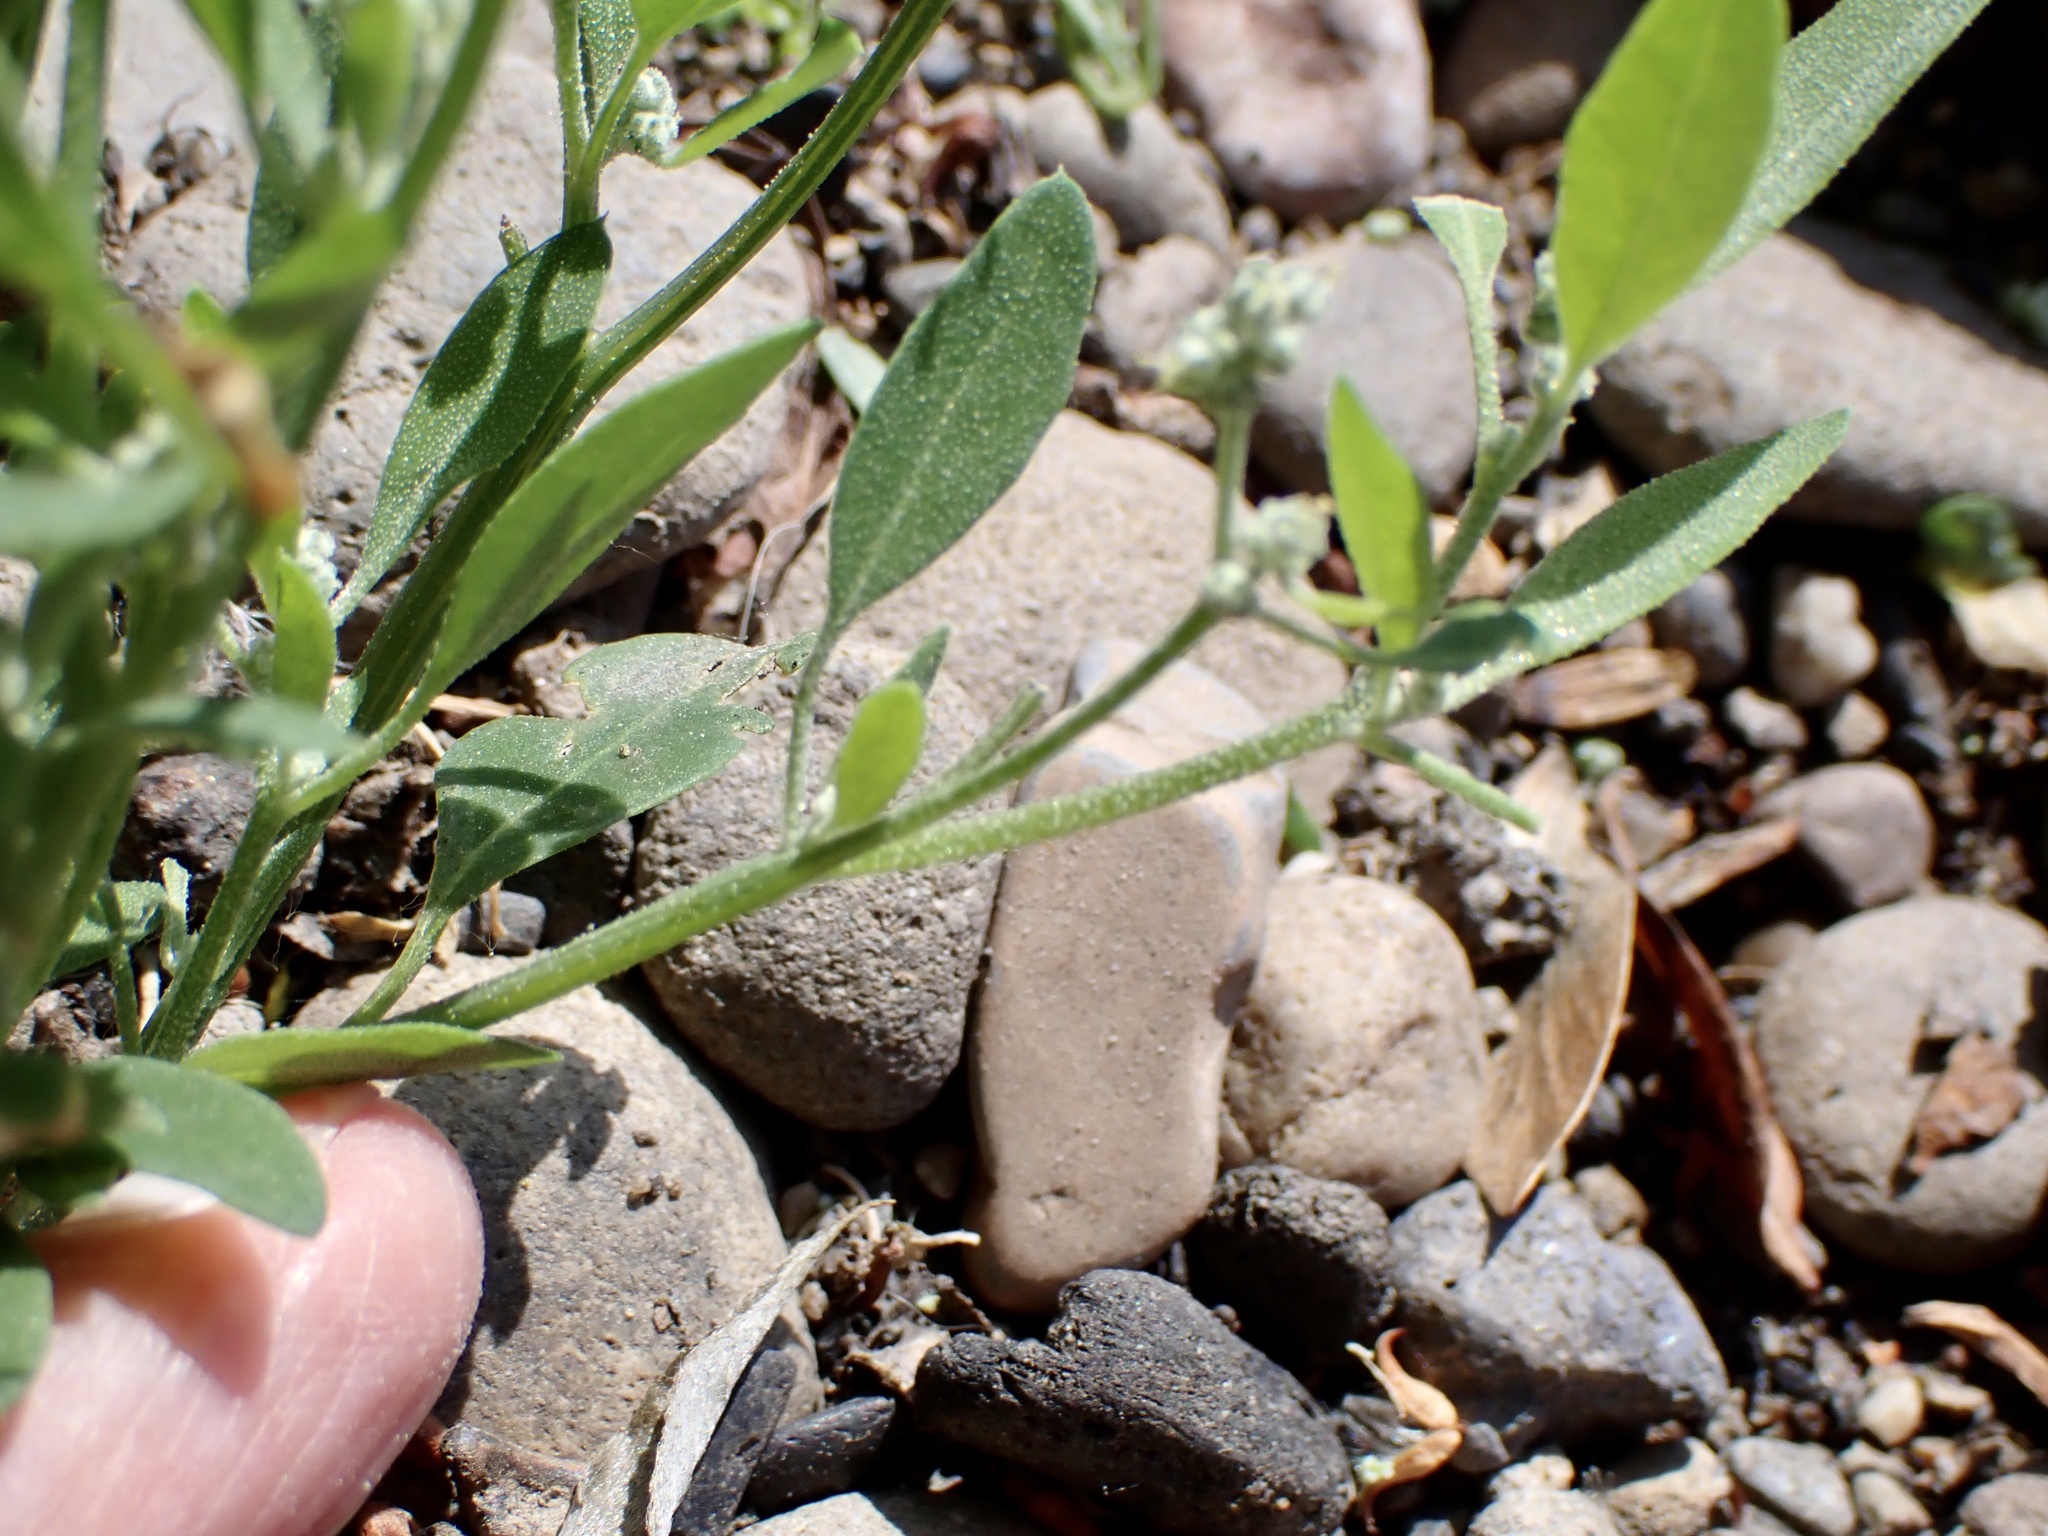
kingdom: Plantae
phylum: Tracheophyta
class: Magnoliopsida
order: Caryophyllales
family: Amaranthaceae
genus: Chenopodium
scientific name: Chenopodium album
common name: Fat-hen
